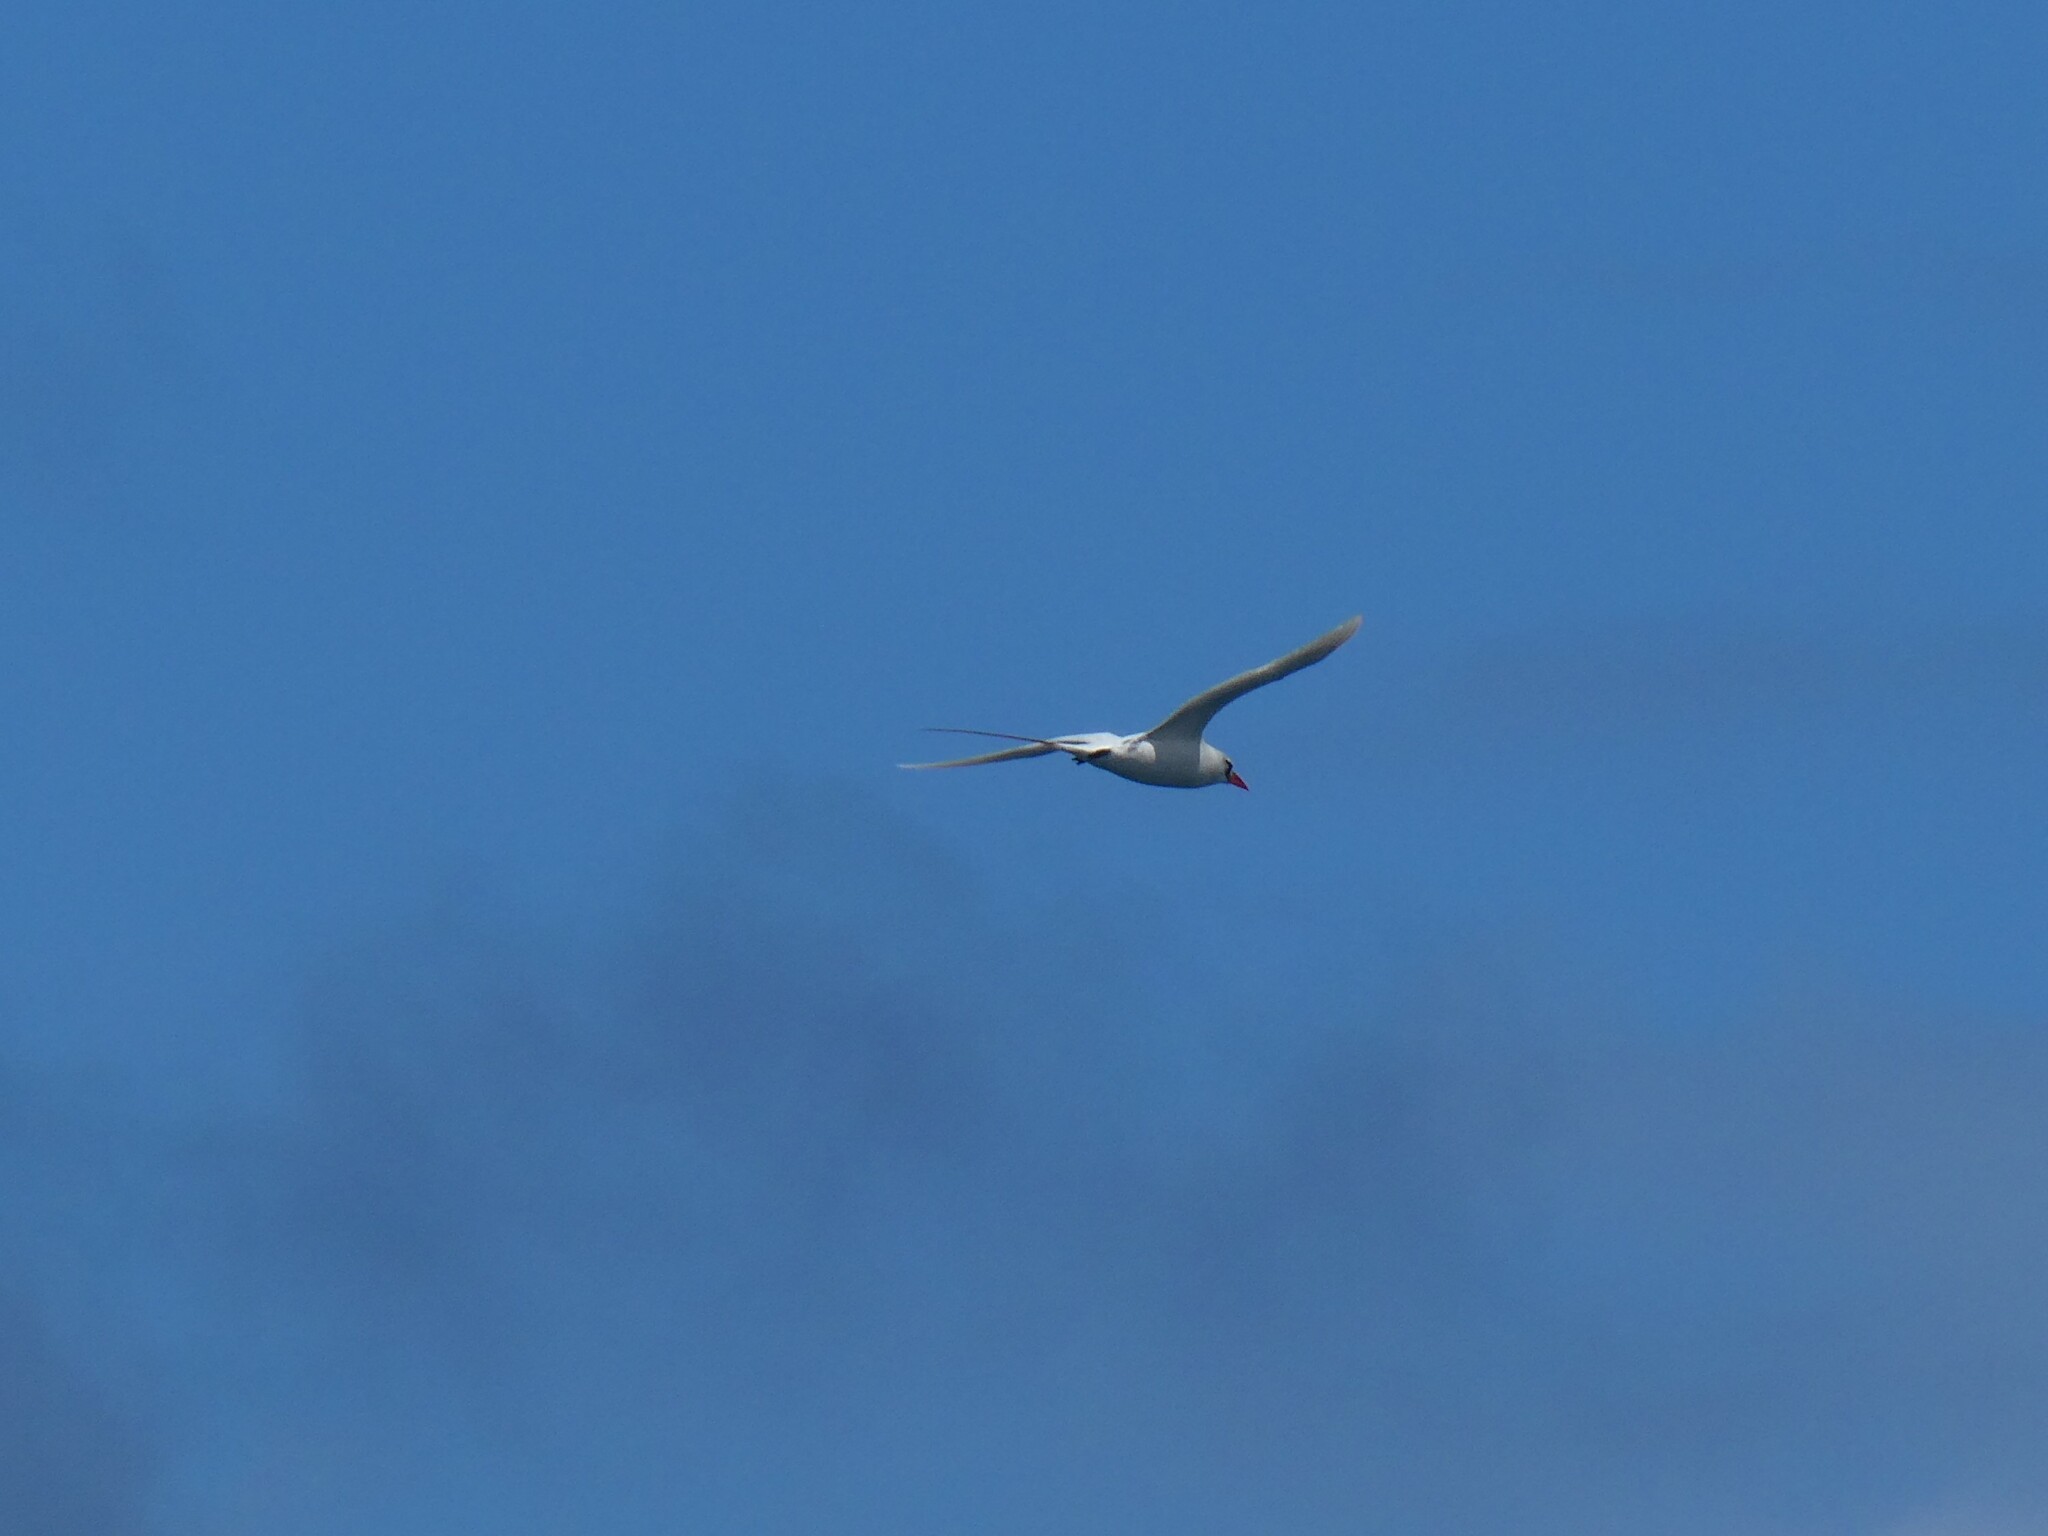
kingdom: Animalia
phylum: Chordata
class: Aves
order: Phaethontiformes
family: Phaethontidae
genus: Phaethon
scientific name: Phaethon rubricauda
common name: Red-tailed tropicbird
